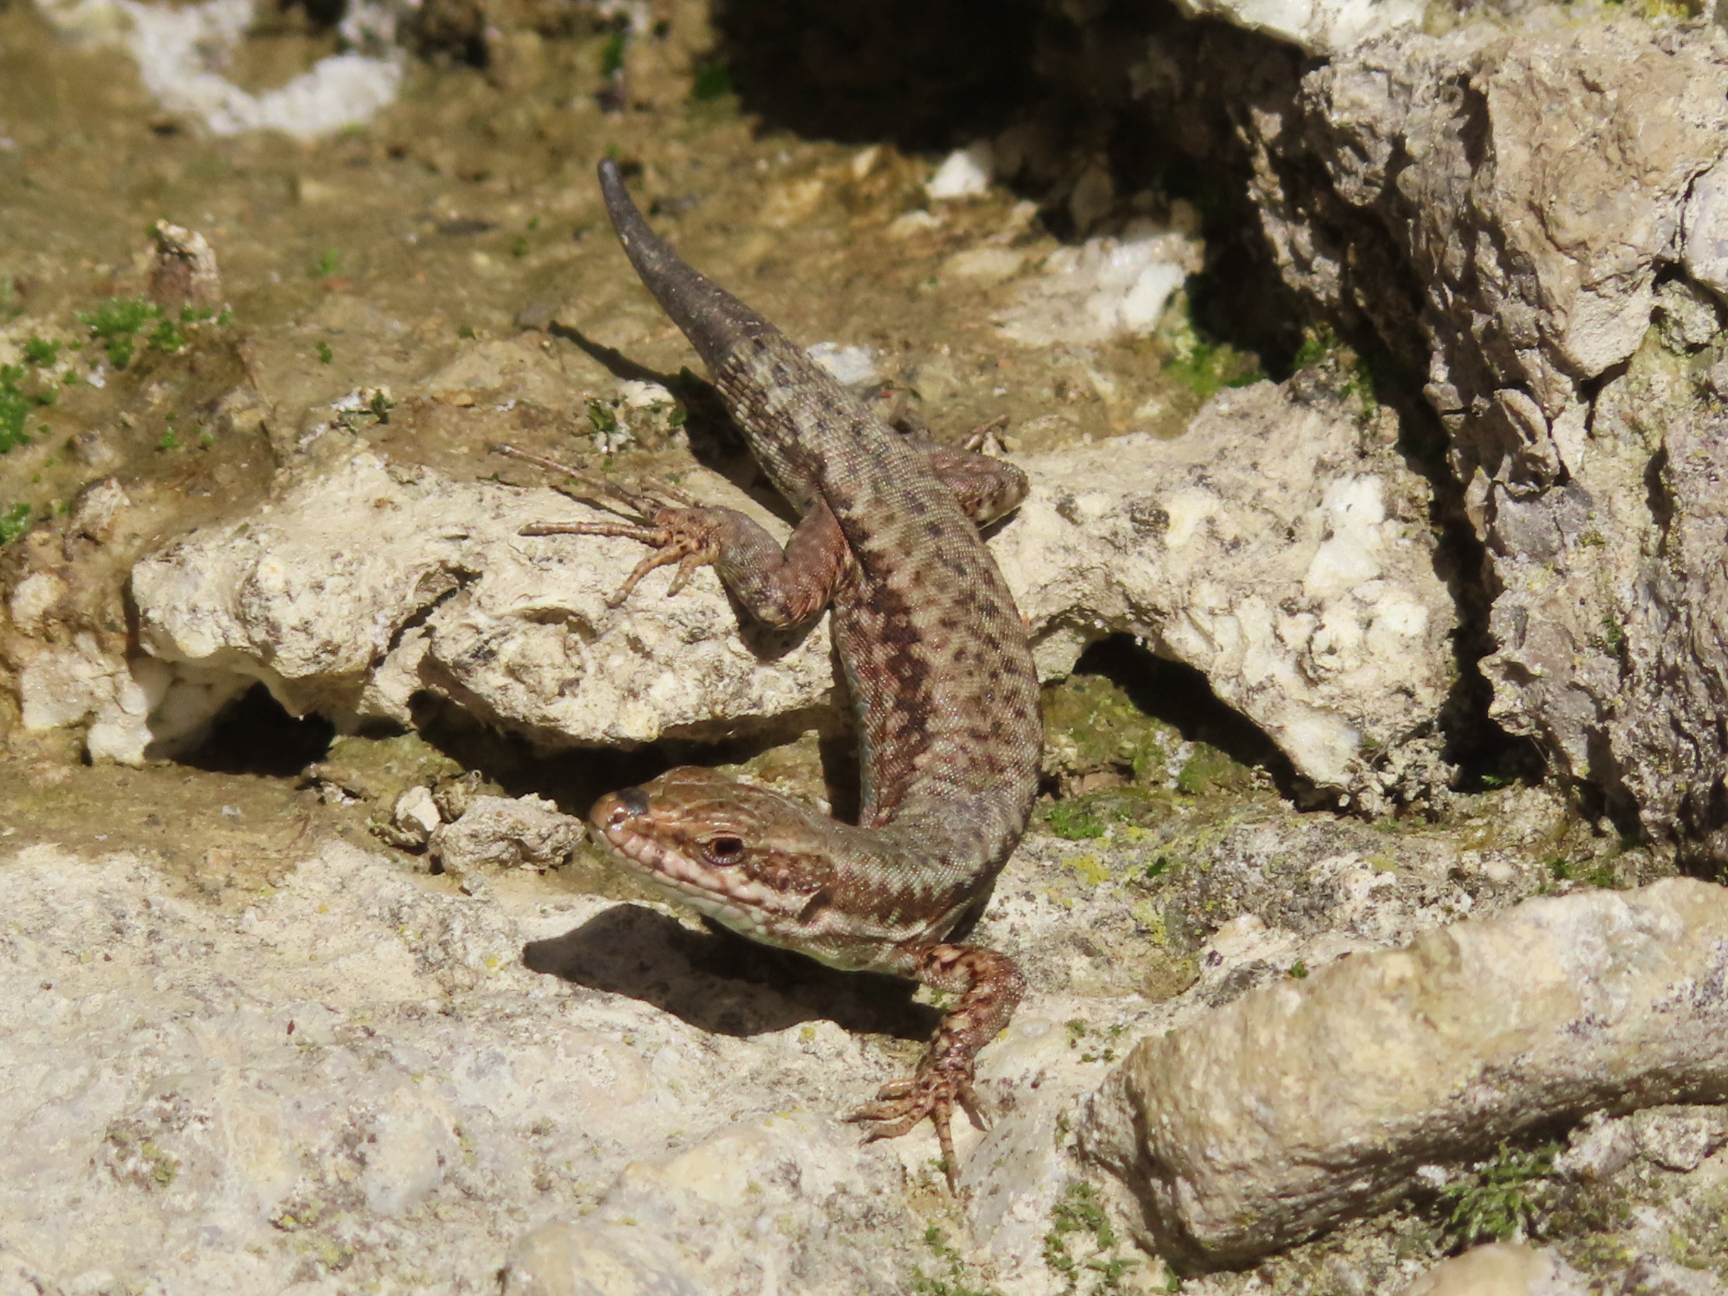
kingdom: Animalia
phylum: Chordata
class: Squamata
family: Lacertidae
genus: Podarcis
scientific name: Podarcis muralis
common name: Common wall lizard
